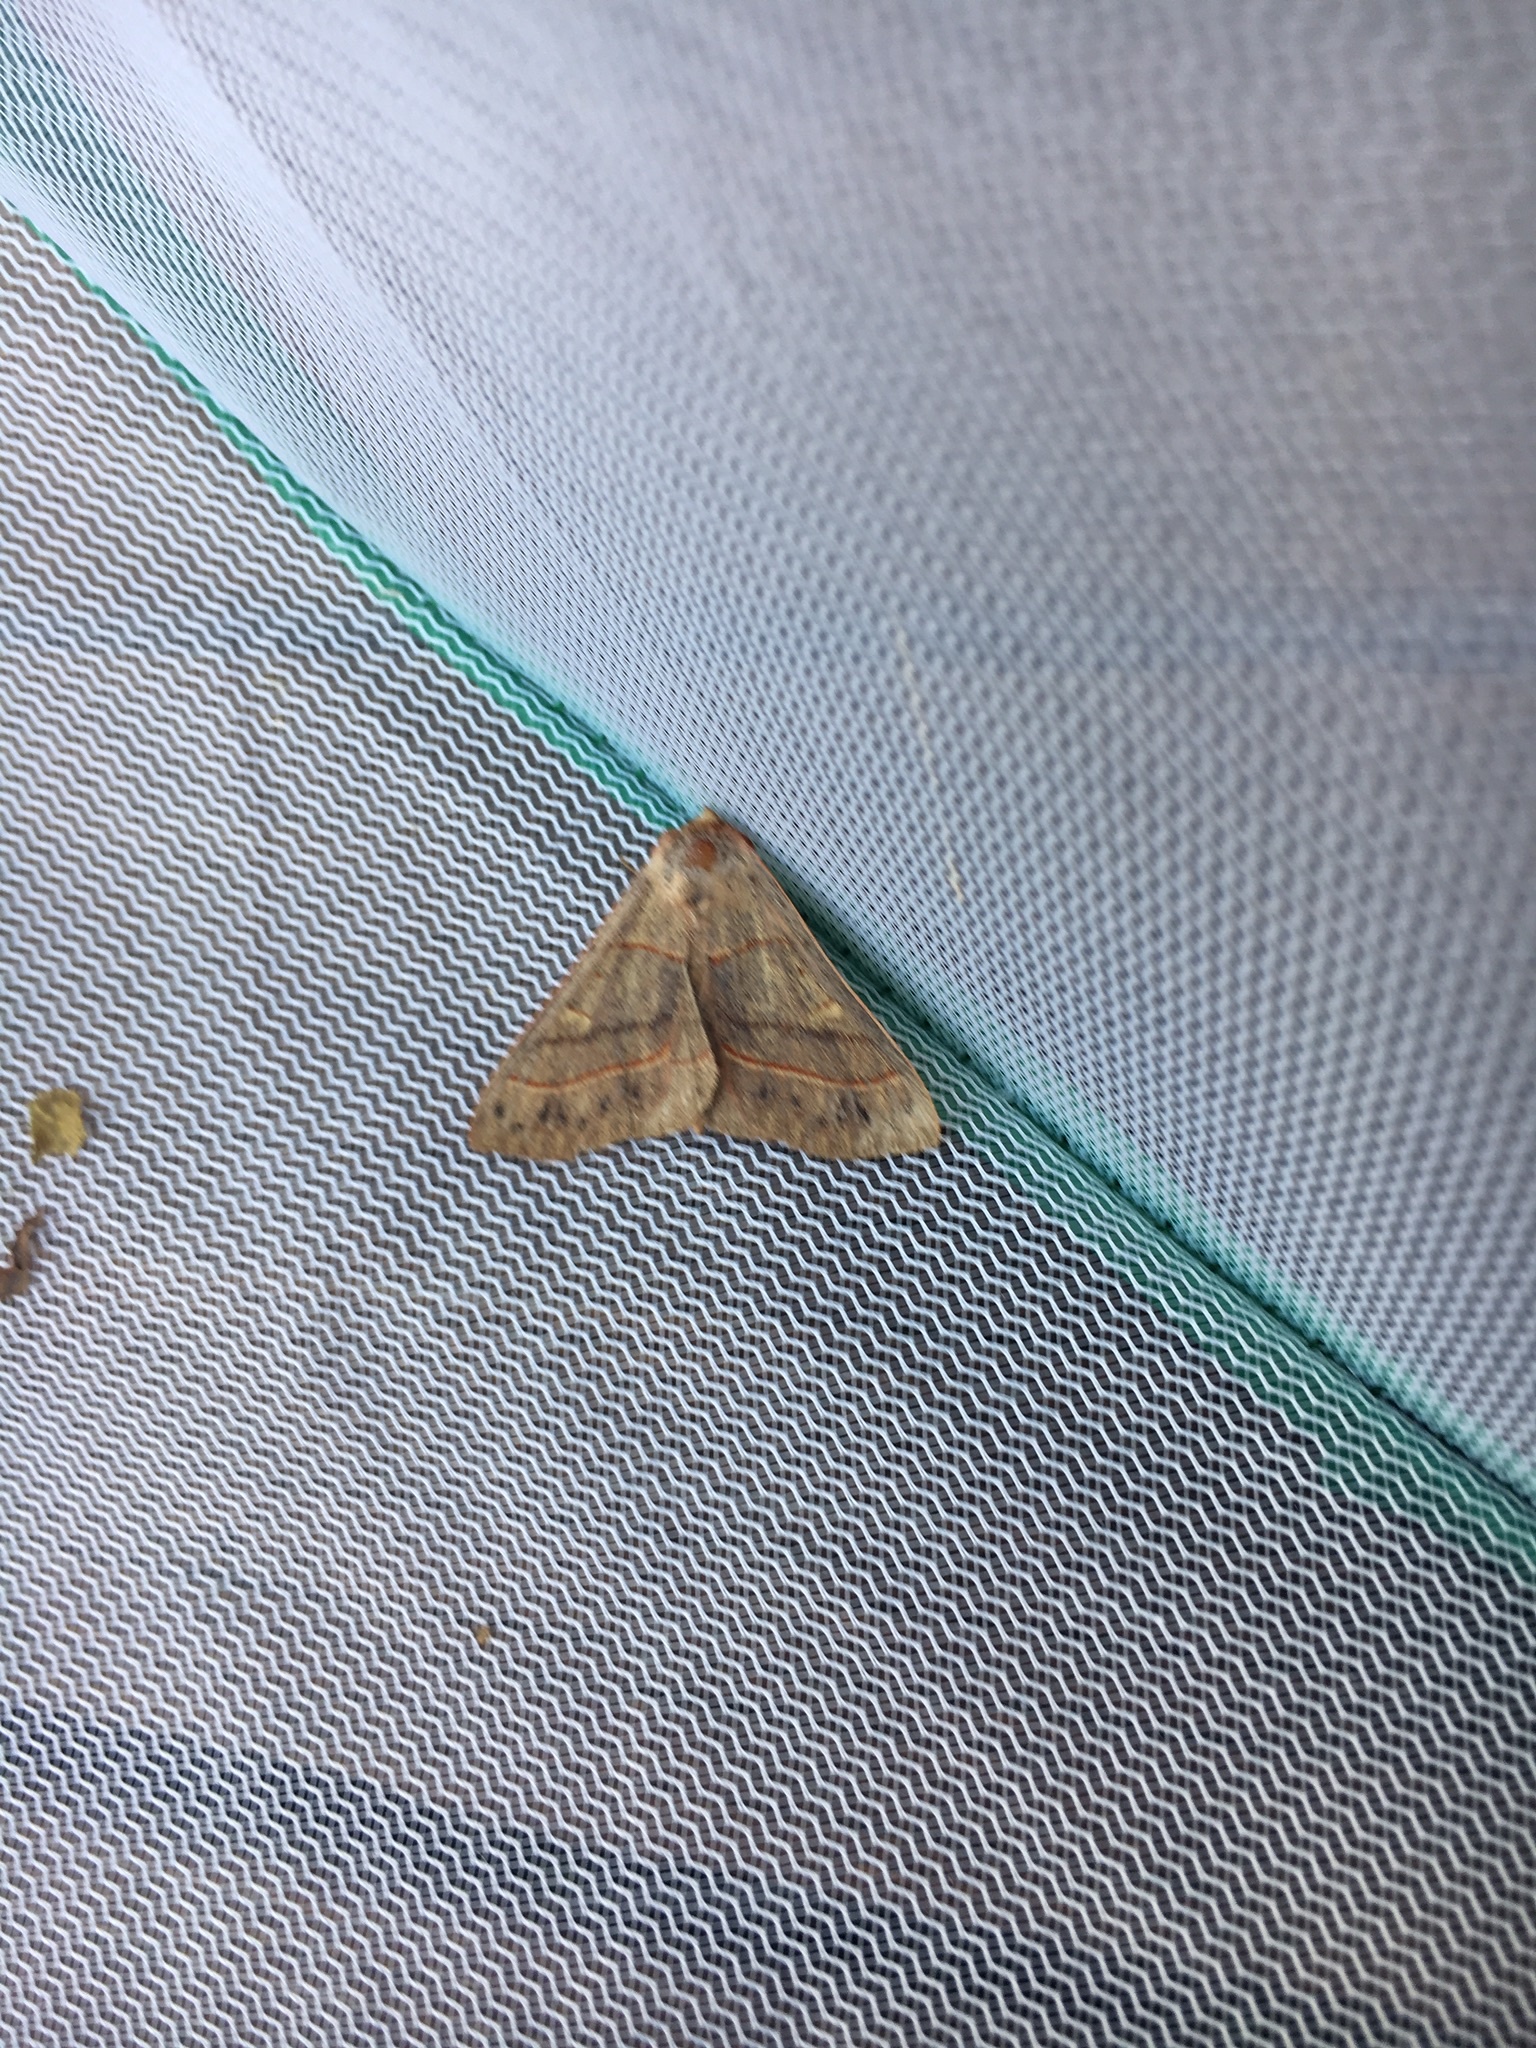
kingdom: Animalia
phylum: Arthropoda
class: Insecta
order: Lepidoptera
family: Erebidae
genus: Panopoda
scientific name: Panopoda rufimargo
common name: Red-lined panopoda moth
